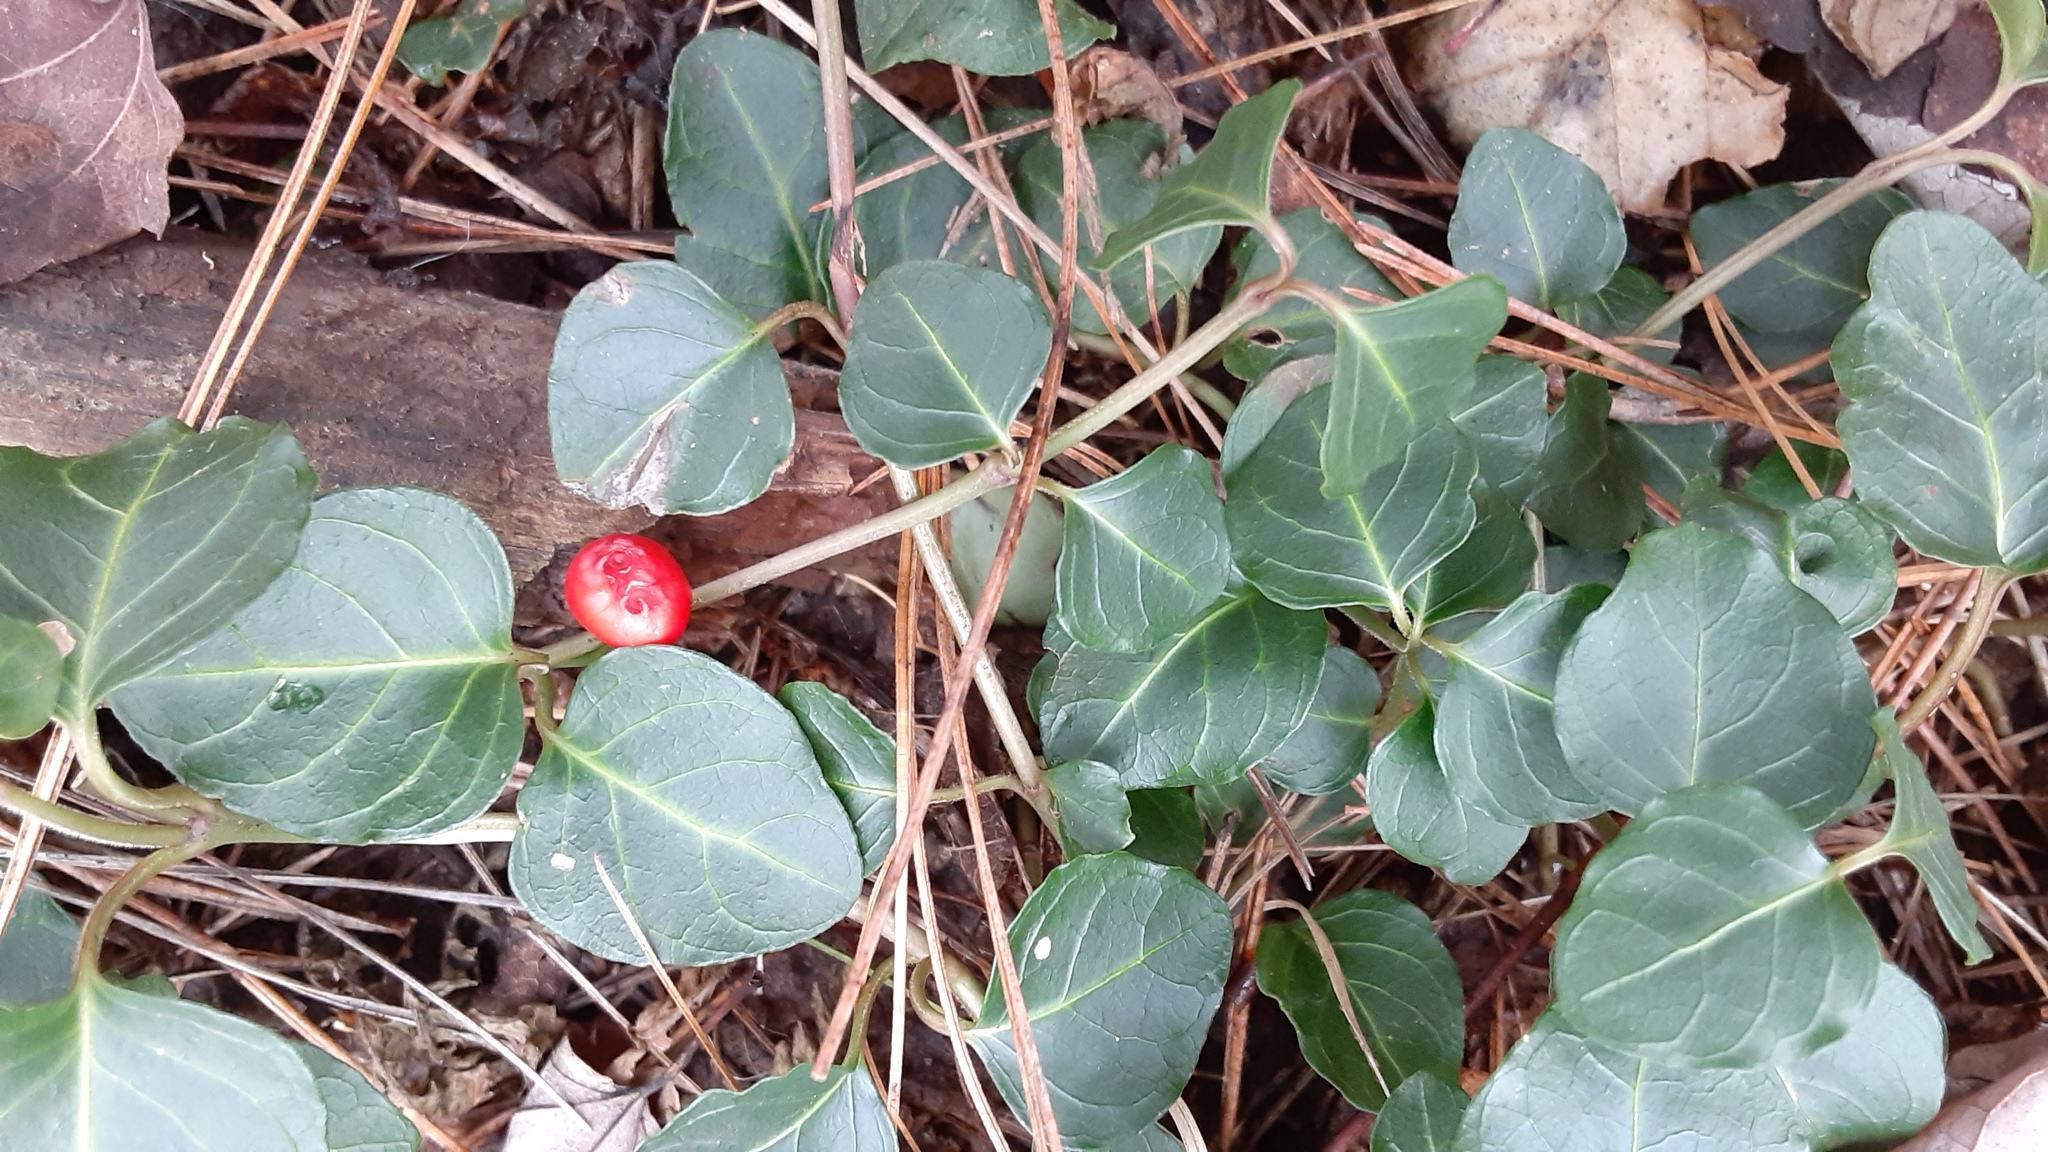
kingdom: Plantae
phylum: Tracheophyta
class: Magnoliopsida
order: Gentianales
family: Rubiaceae
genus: Mitchella
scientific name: Mitchella repens
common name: Partridge-berry
